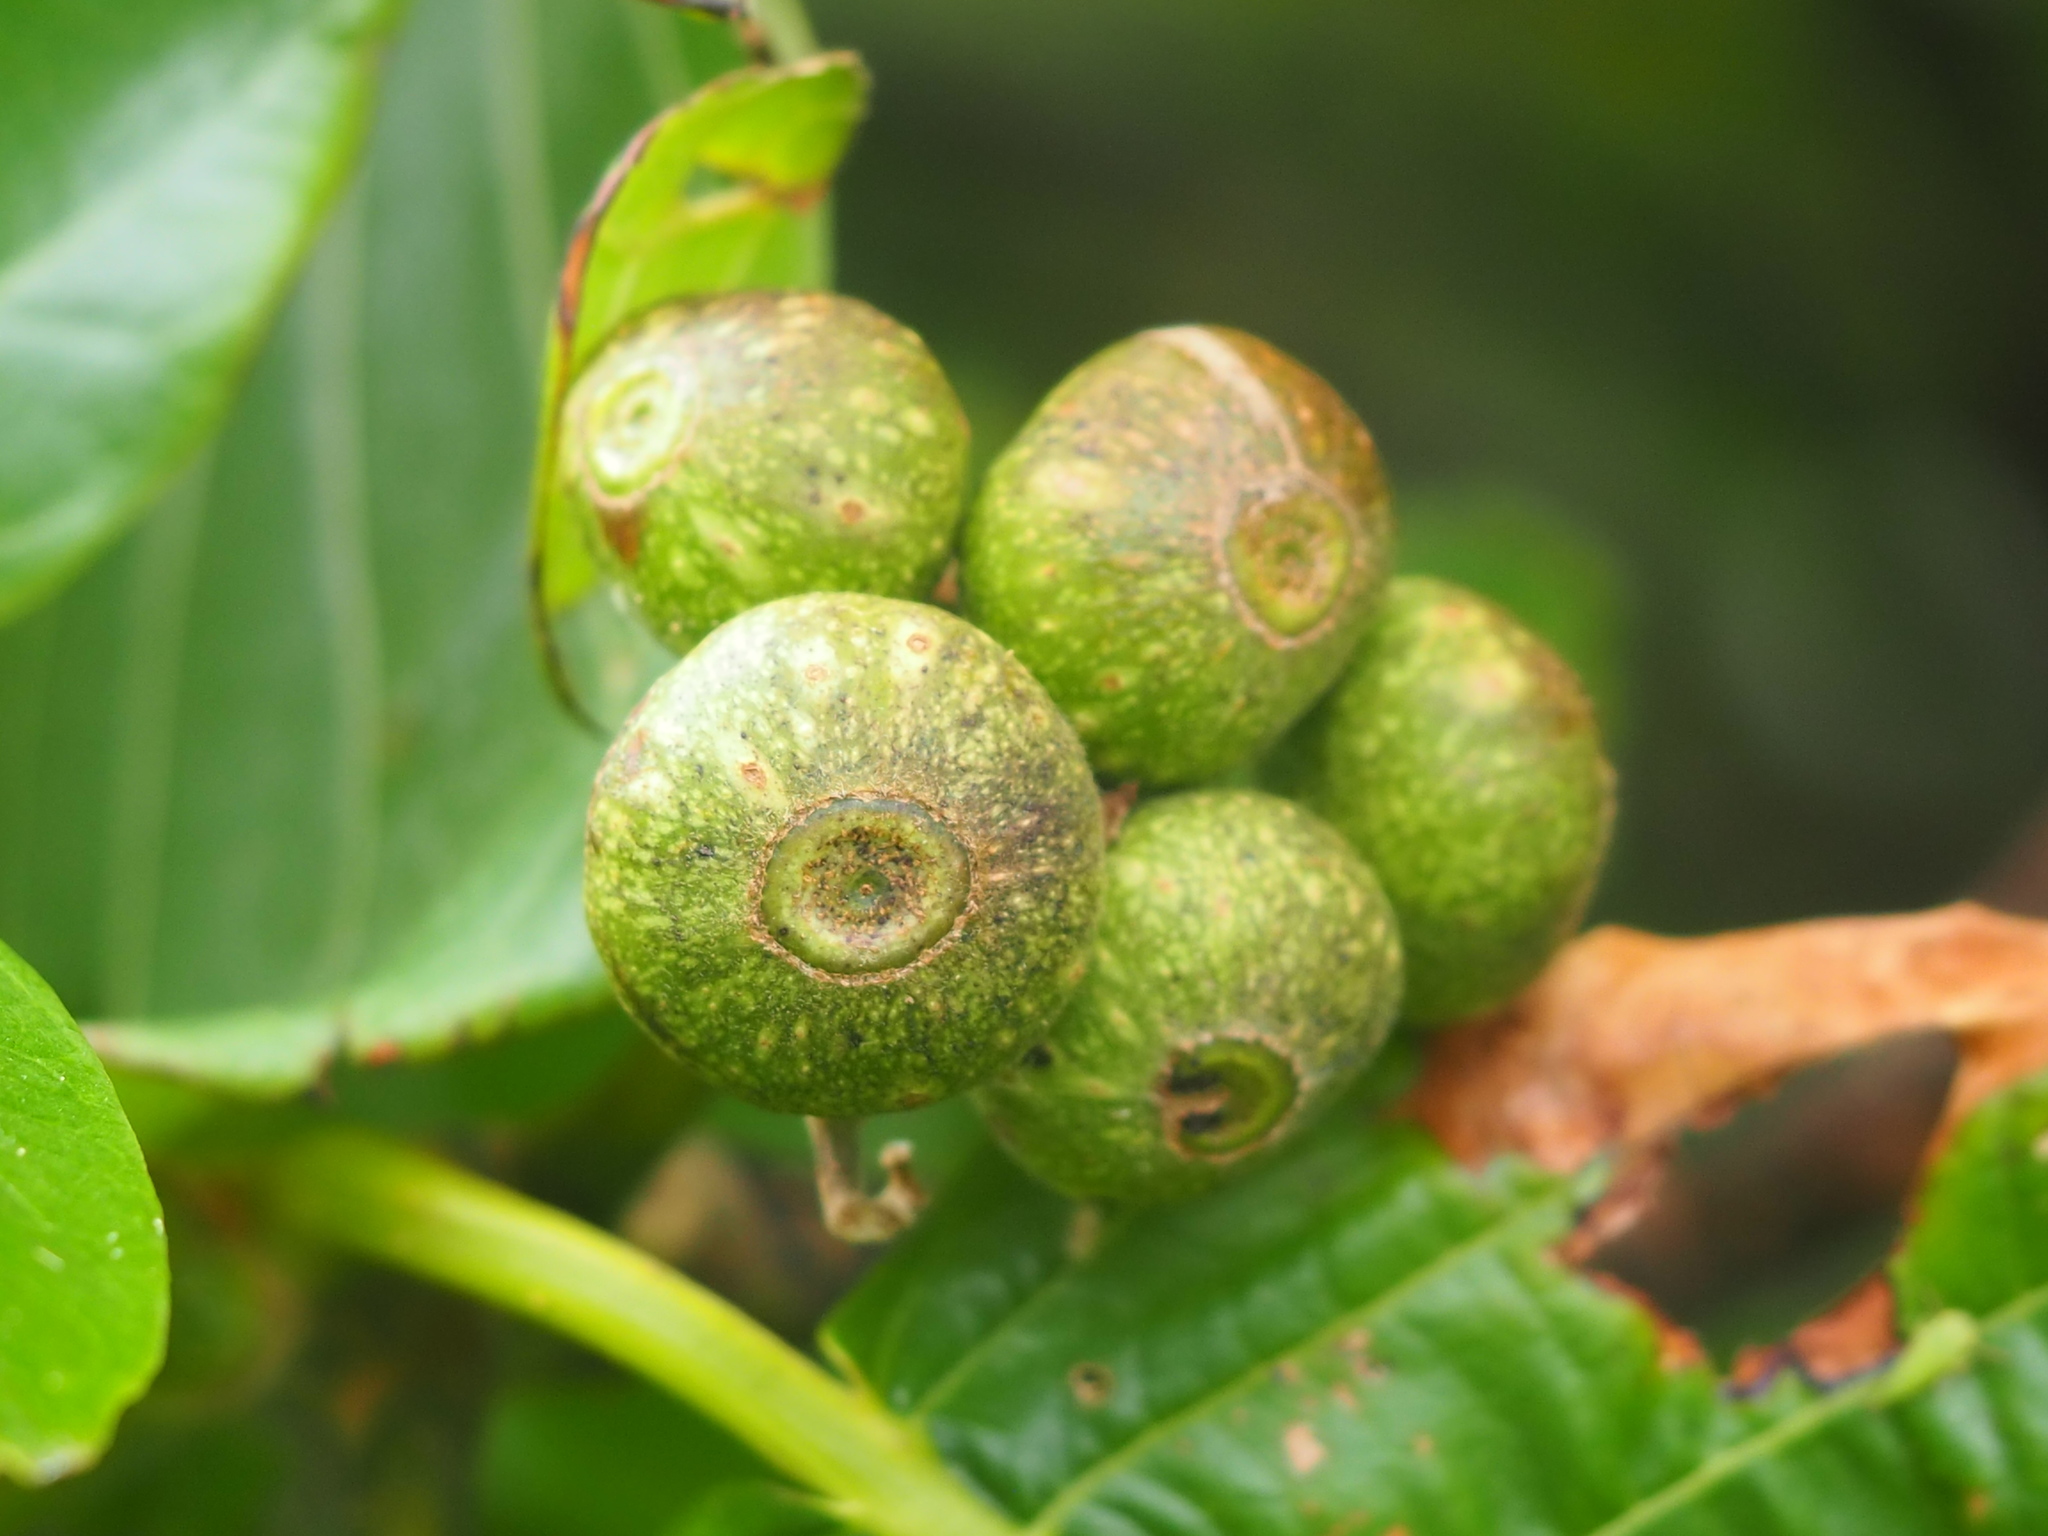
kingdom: Plantae
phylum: Tracheophyta
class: Magnoliopsida
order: Gentianales
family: Rubiaceae
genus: Guettarda
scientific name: Guettarda speciosa
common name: Sea randa
